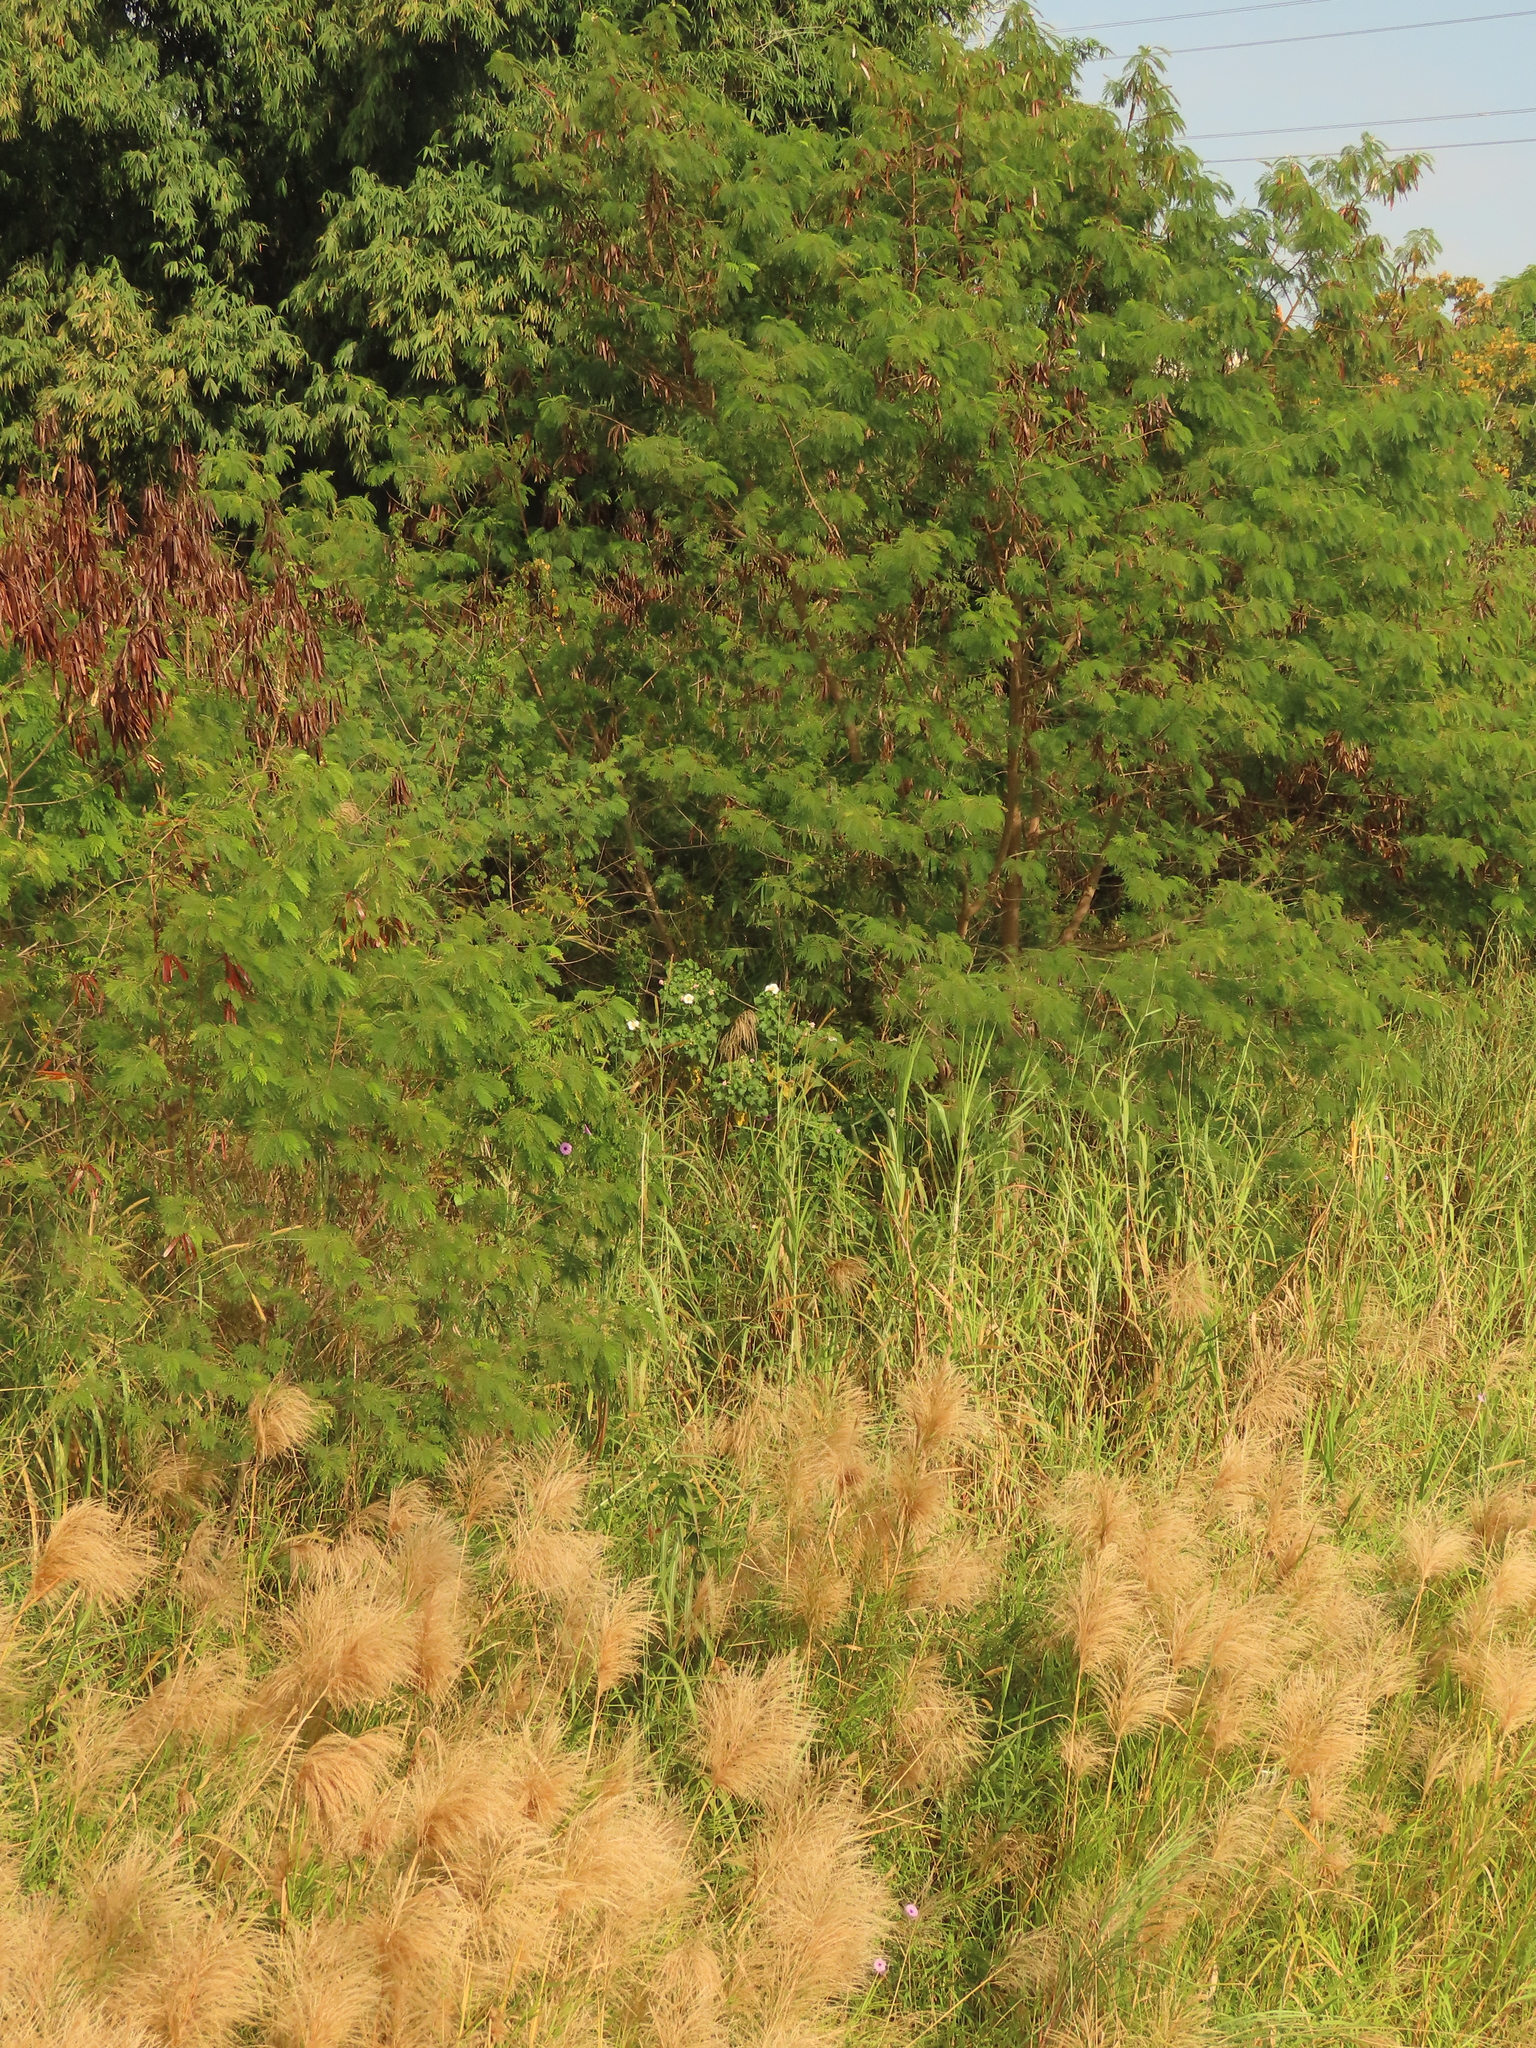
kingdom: Plantae
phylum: Tracheophyta
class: Magnoliopsida
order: Malvales
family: Malvaceae
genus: Hibiscus
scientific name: Hibiscus taiwanensis
